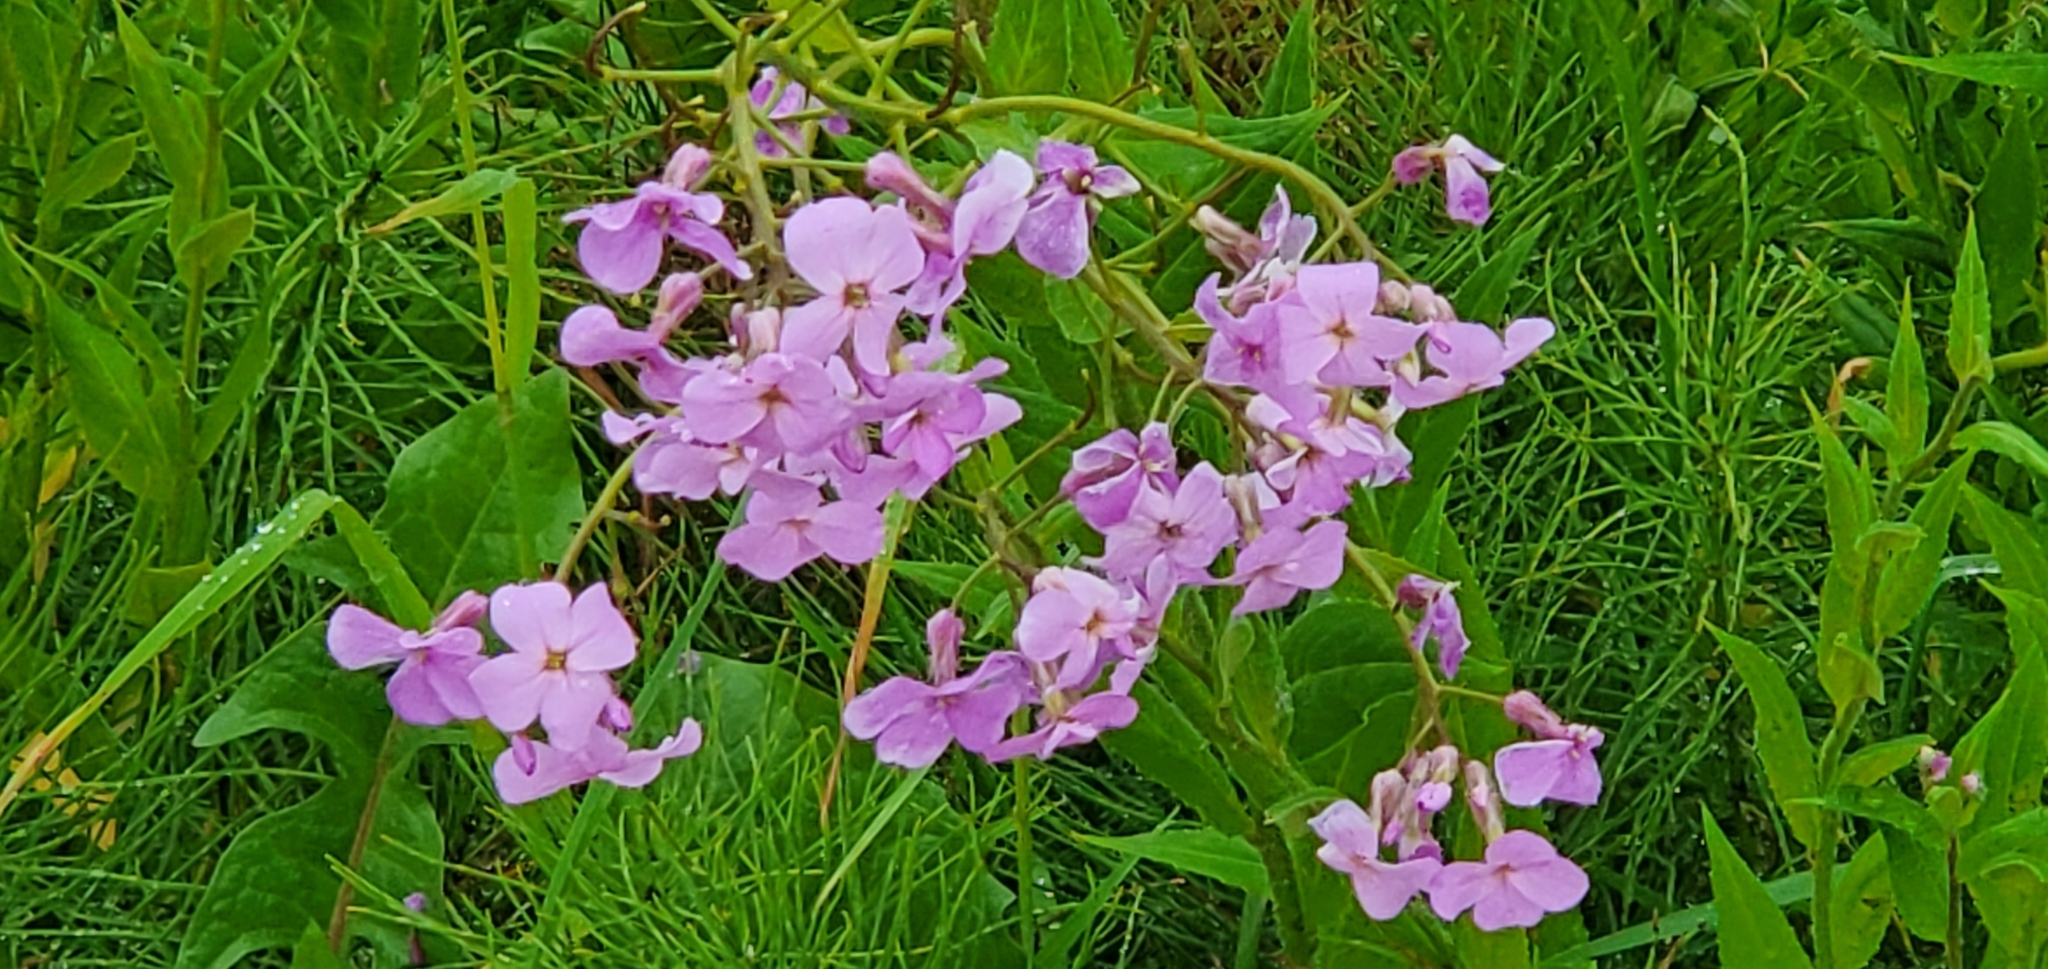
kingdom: Plantae
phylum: Tracheophyta
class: Magnoliopsida
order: Brassicales
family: Brassicaceae
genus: Hesperis
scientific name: Hesperis matronalis
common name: Dame's-violet
